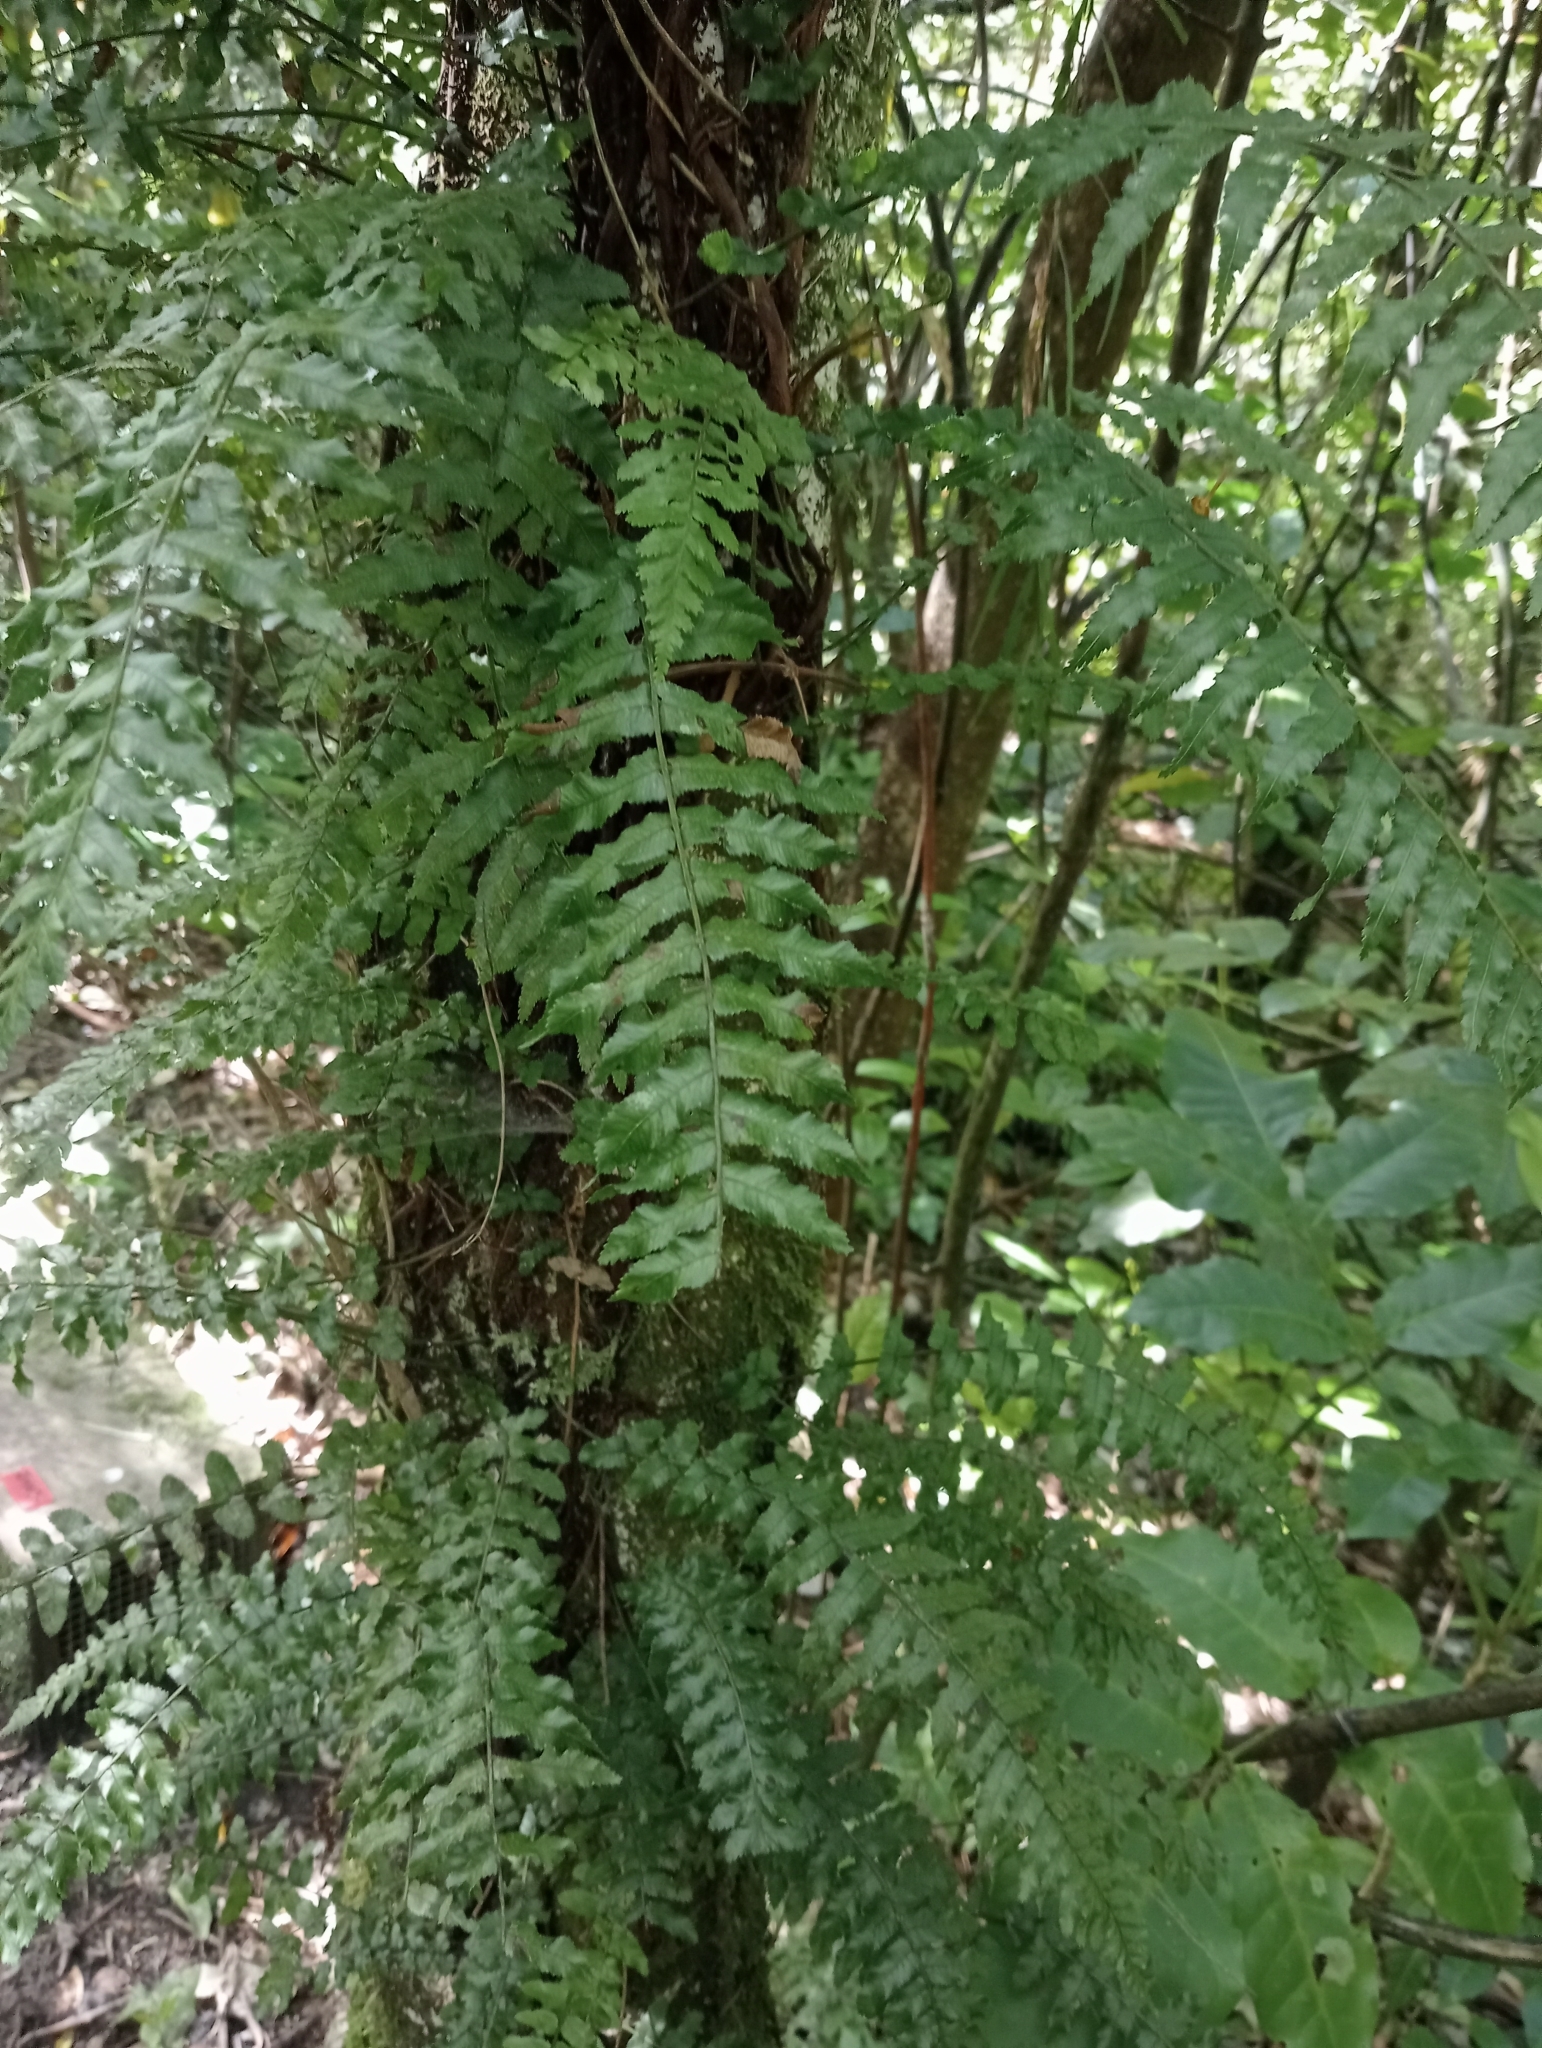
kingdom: Plantae
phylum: Tracheophyta
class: Polypodiopsida
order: Polypodiales
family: Blechnaceae
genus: Icarus
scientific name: Icarus filiformis
